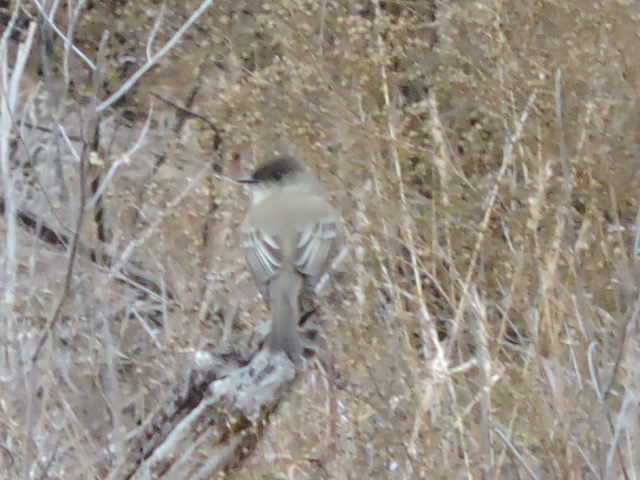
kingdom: Animalia
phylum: Chordata
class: Aves
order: Passeriformes
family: Tyrannidae
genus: Sayornis
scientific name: Sayornis phoebe
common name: Eastern phoebe
